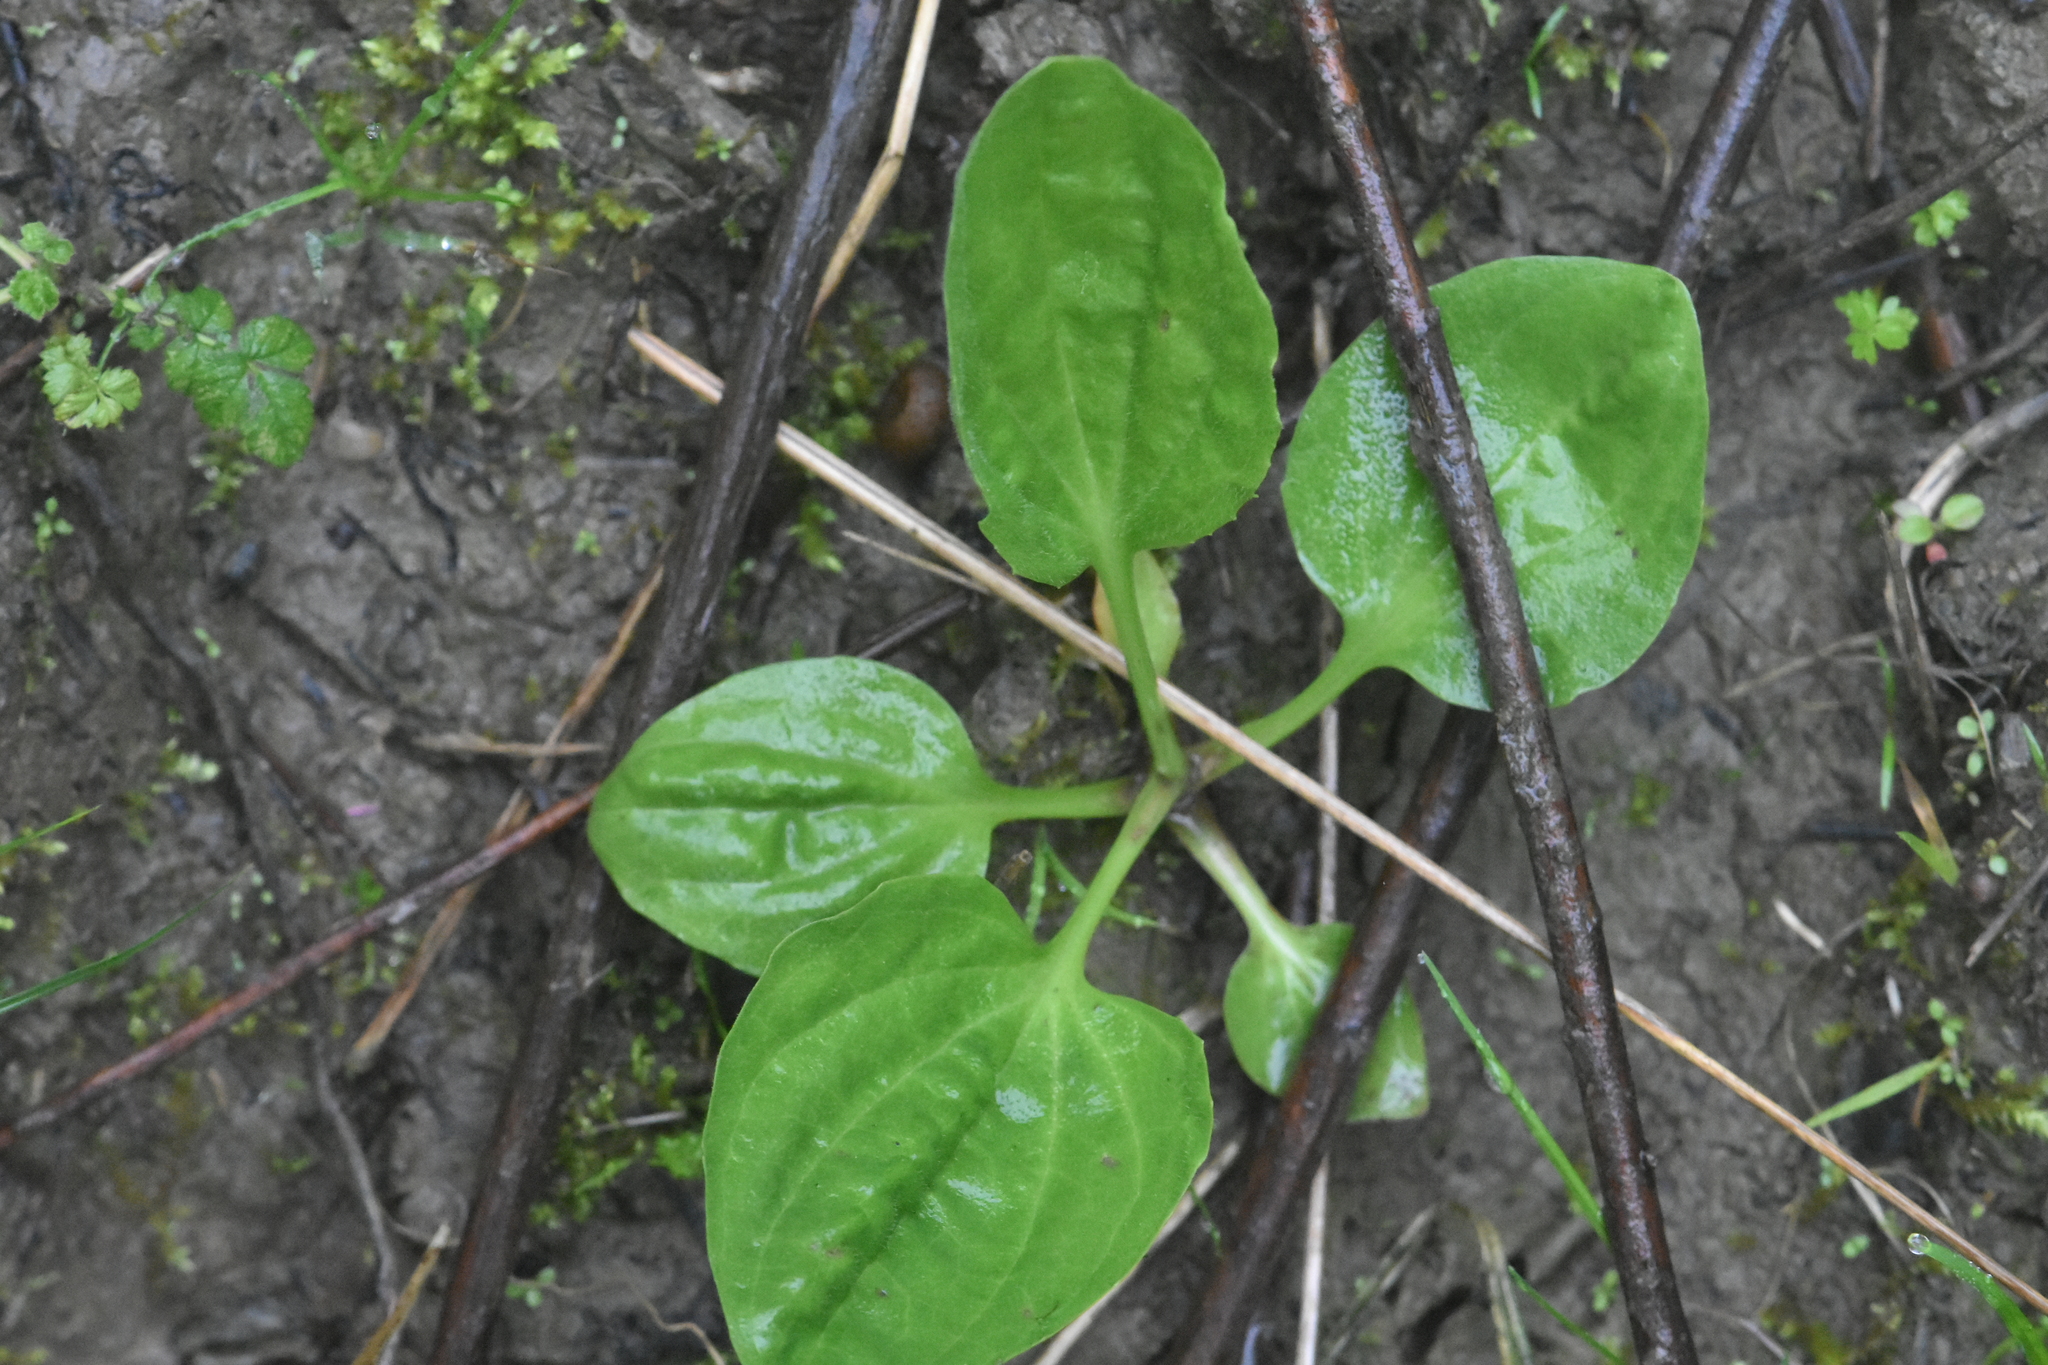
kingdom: Plantae
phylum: Tracheophyta
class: Magnoliopsida
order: Lamiales
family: Plantaginaceae
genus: Plantago
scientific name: Plantago major
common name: Common plantain
